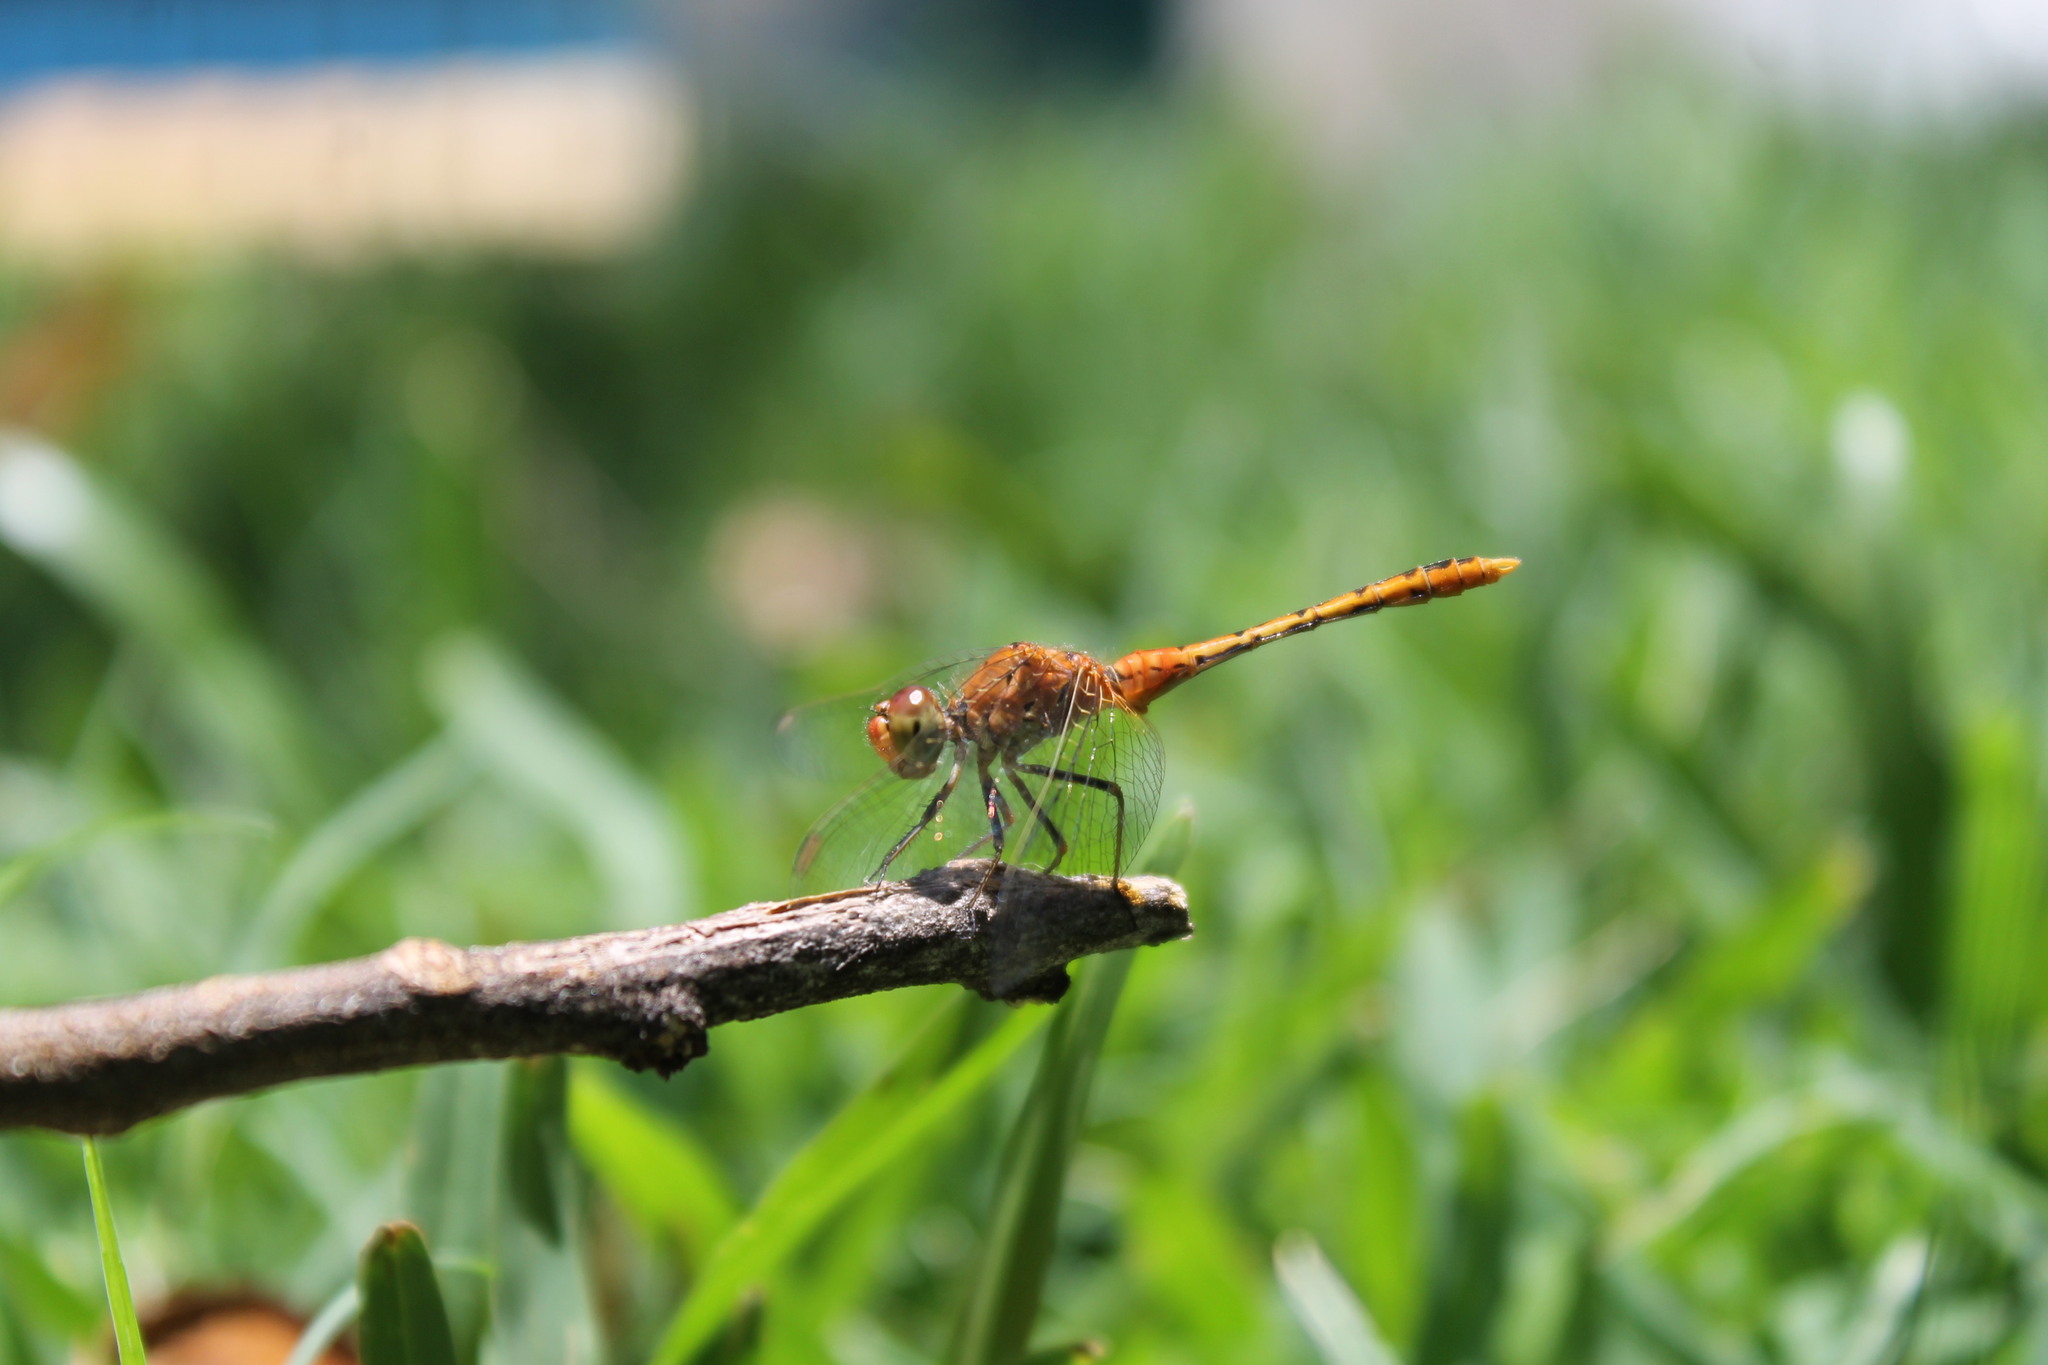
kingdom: Animalia
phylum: Arthropoda
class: Insecta
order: Odonata
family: Libellulidae
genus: Diplacodes
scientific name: Diplacodes bipunctata
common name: Red percher dragonfly
